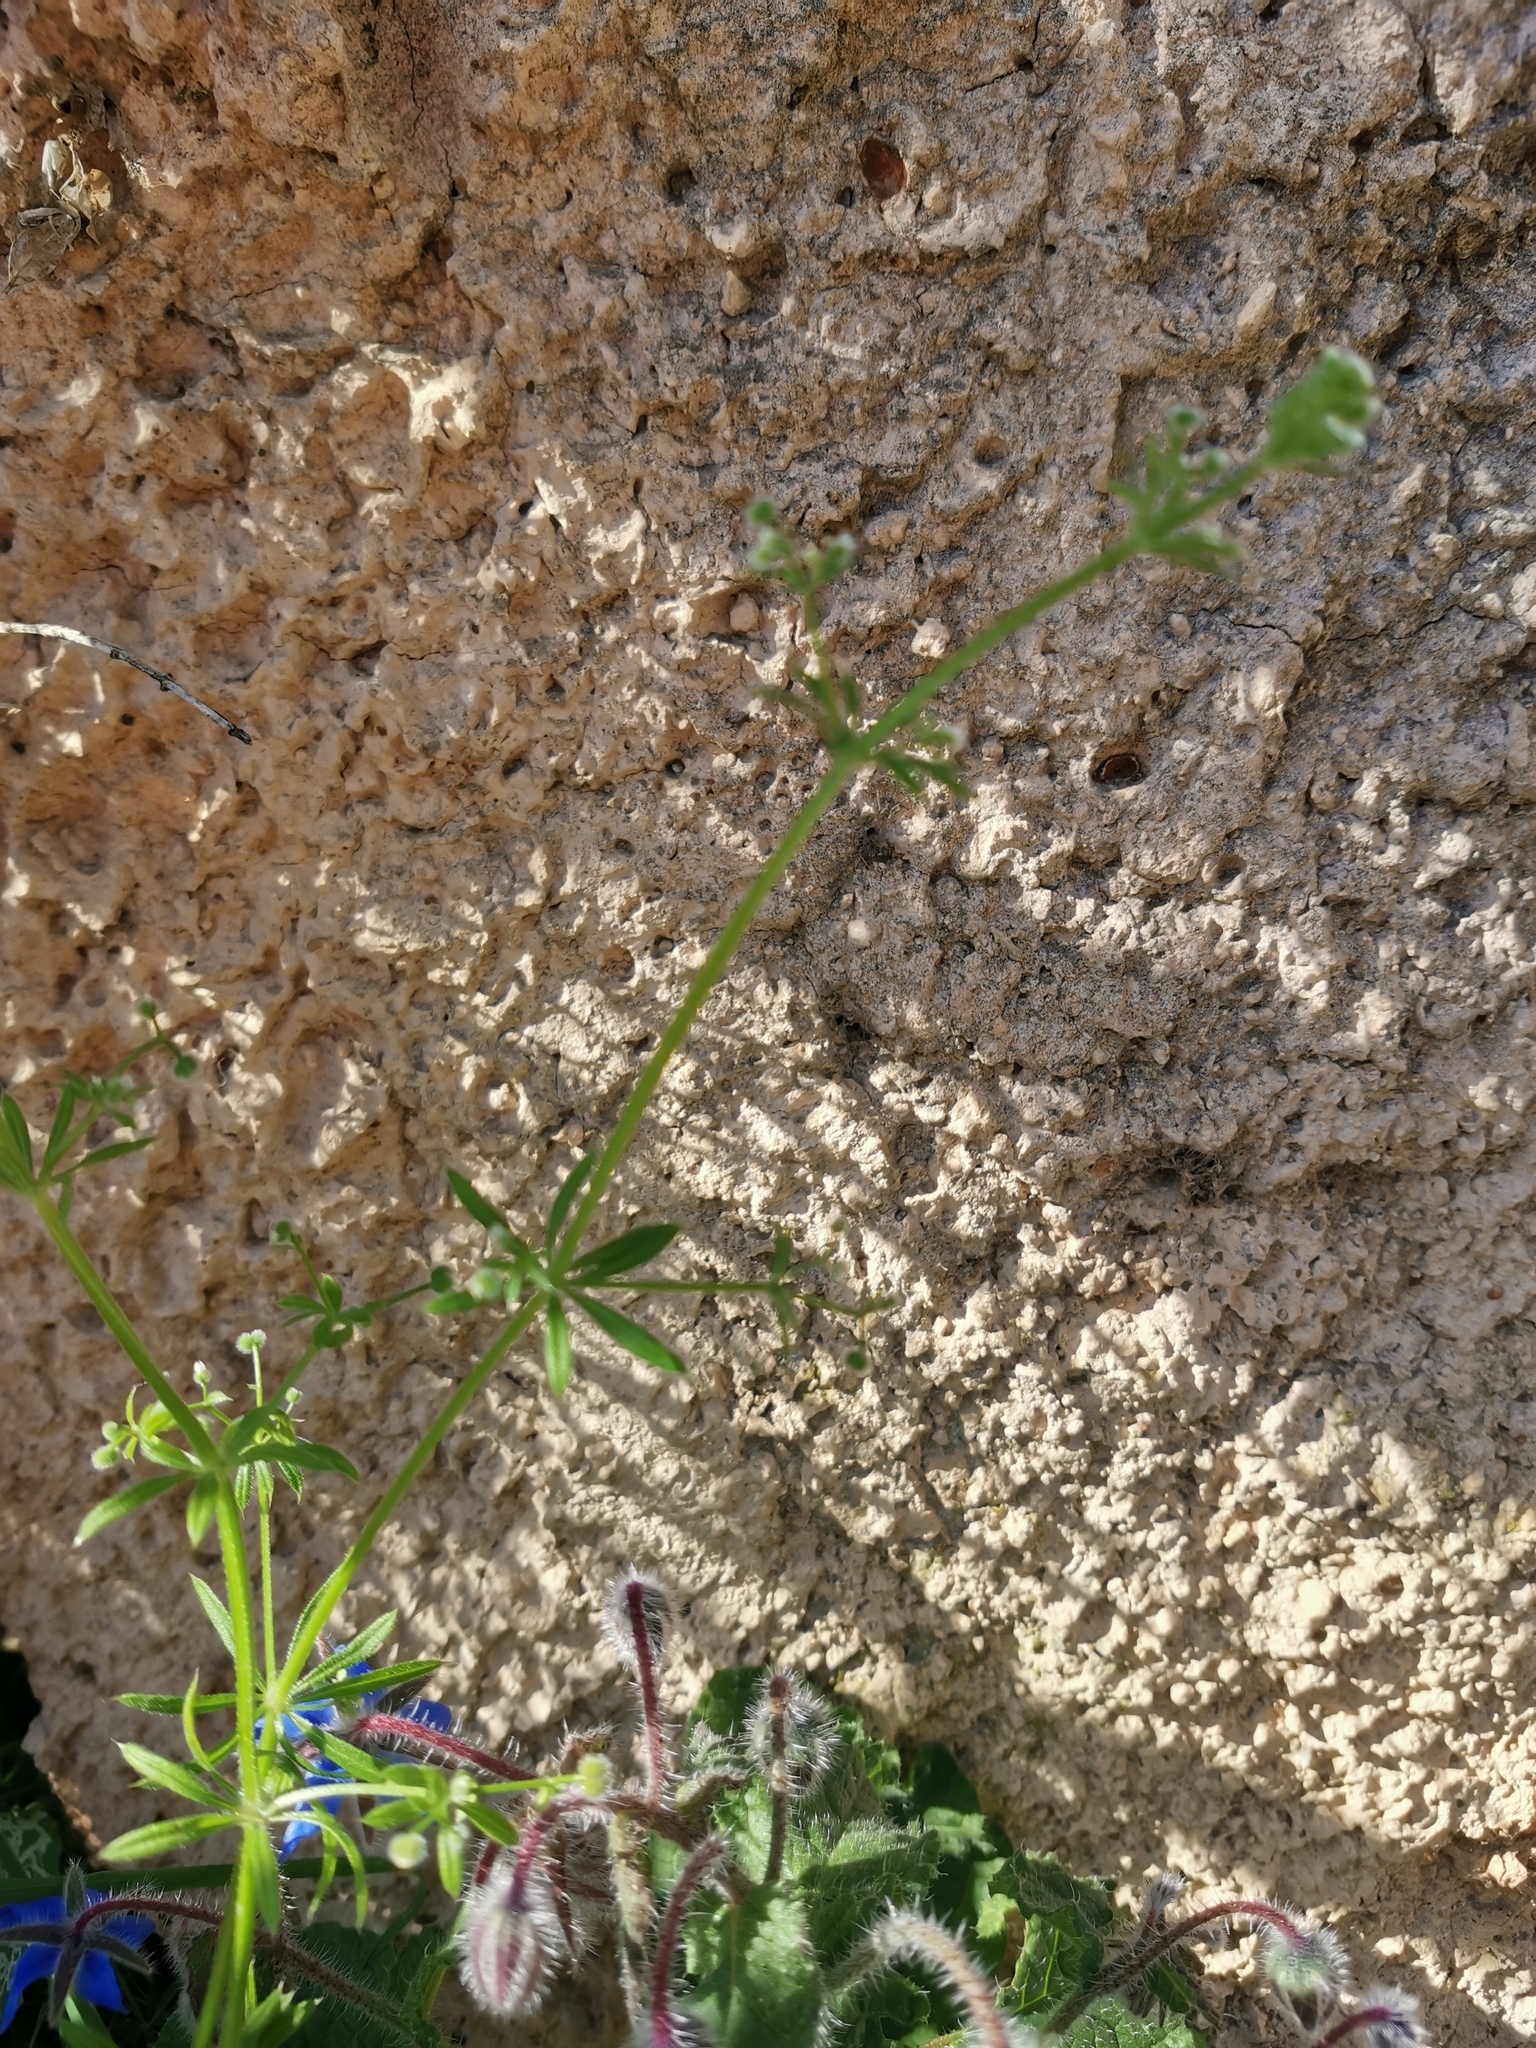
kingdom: Plantae
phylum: Tracheophyta
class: Magnoliopsida
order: Gentianales
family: Rubiaceae
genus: Galium
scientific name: Galium aparine
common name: Cleavers
